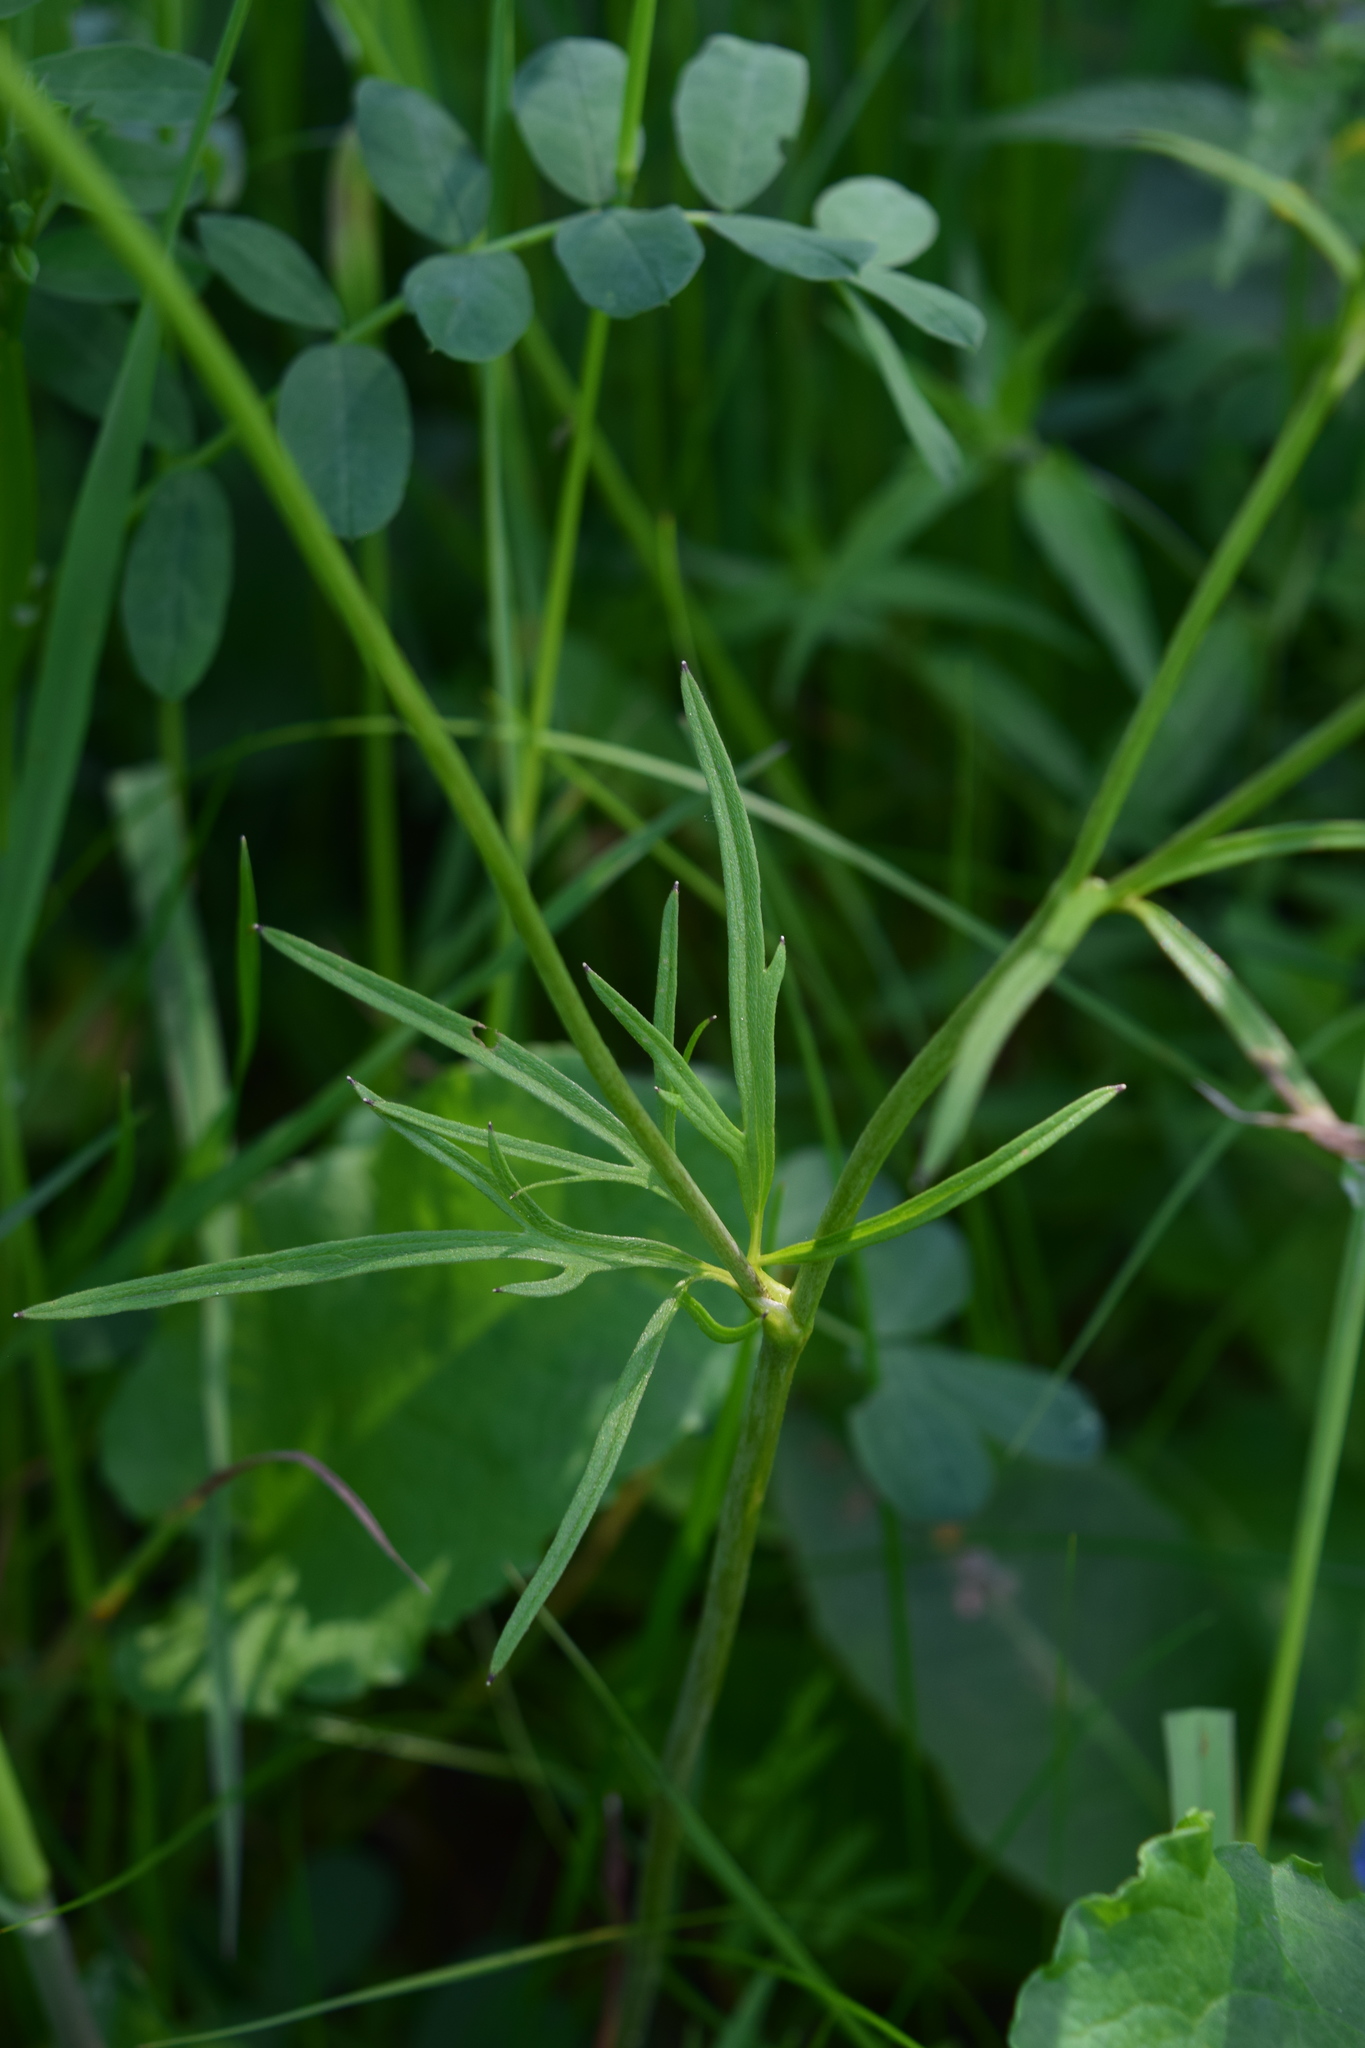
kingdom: Plantae
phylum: Tracheophyta
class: Magnoliopsida
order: Ranunculales
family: Ranunculaceae
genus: Ranunculus
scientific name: Ranunculus acris
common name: Meadow buttercup
